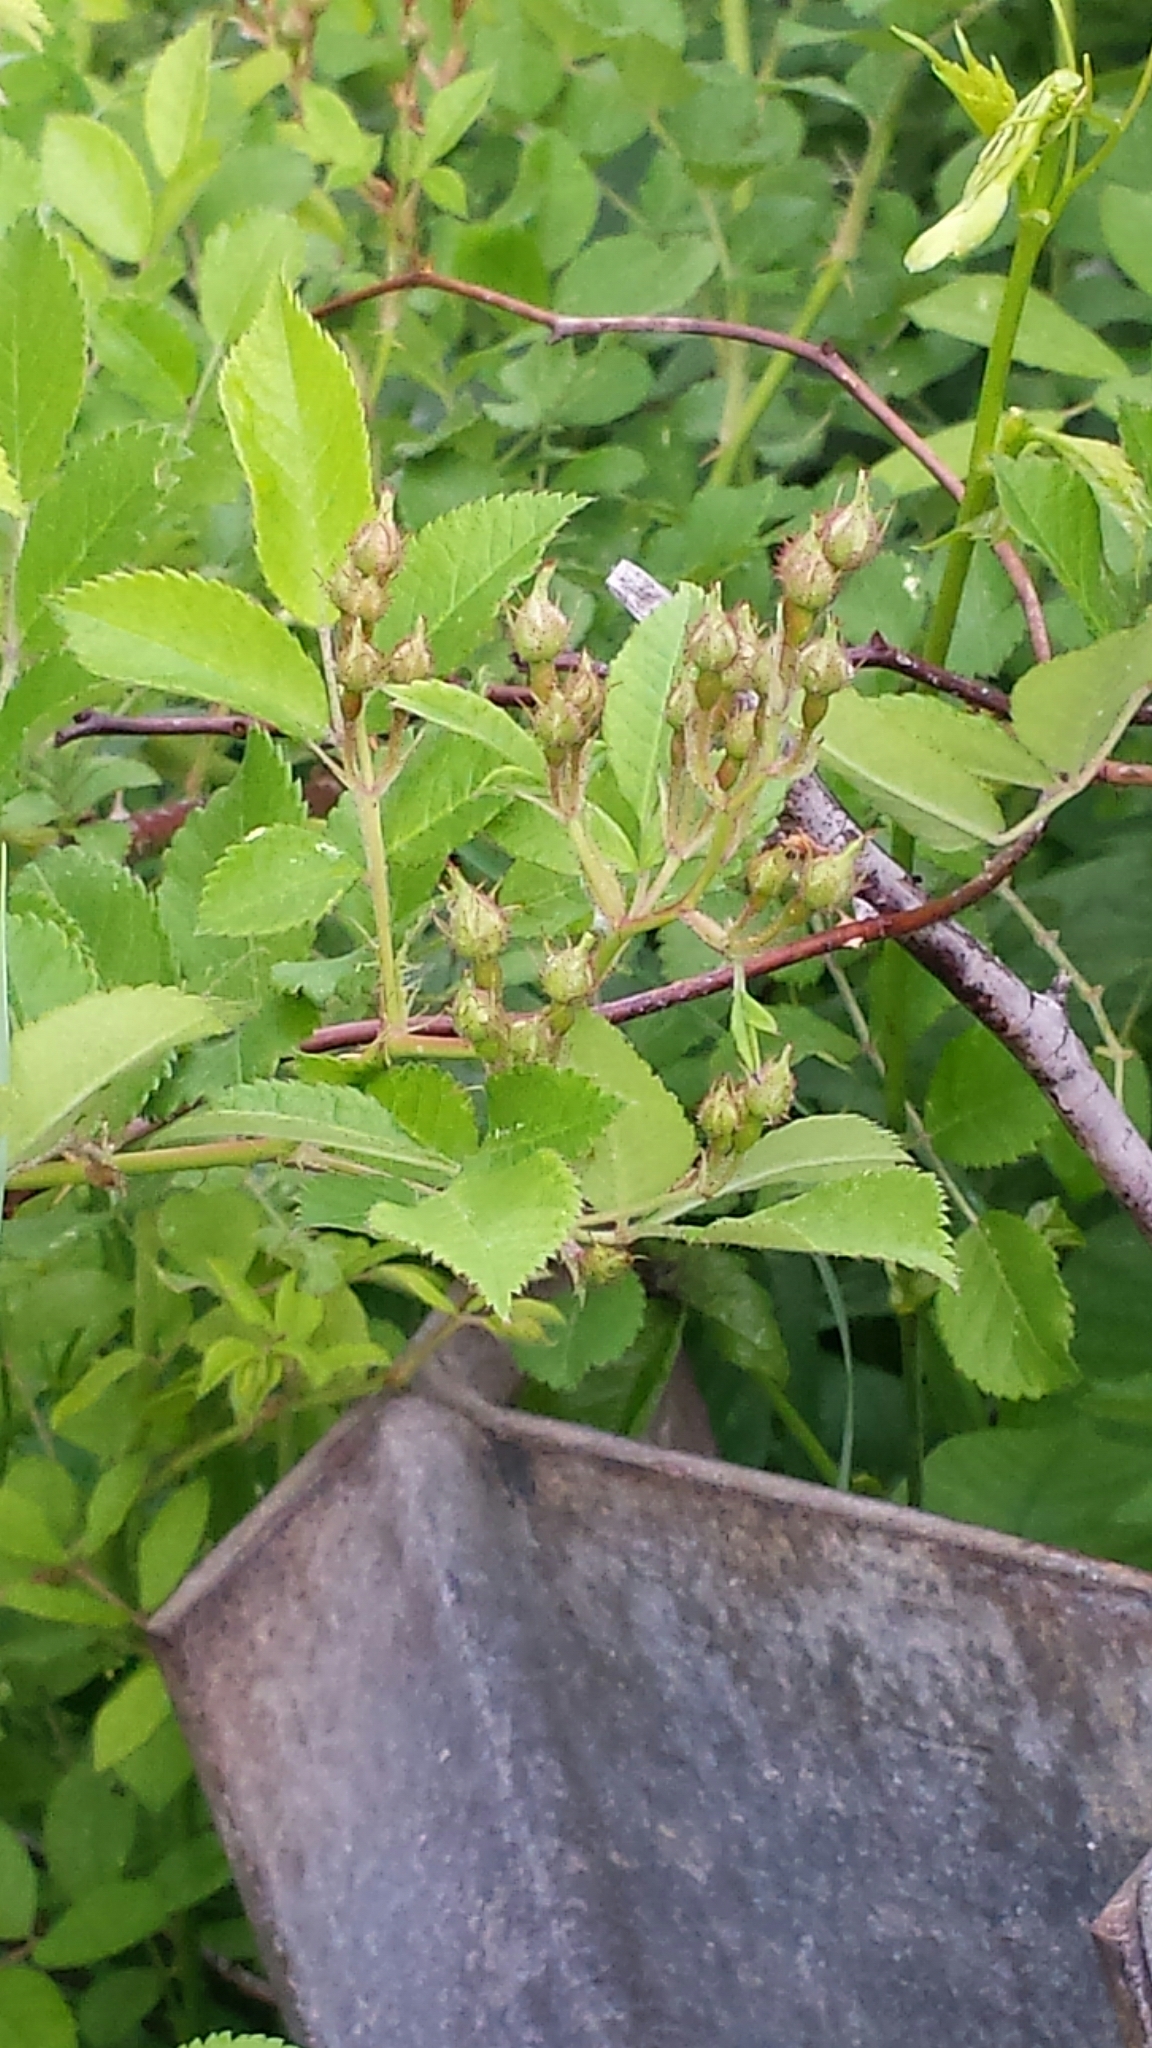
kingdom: Plantae
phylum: Tracheophyta
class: Magnoliopsida
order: Rosales
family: Rosaceae
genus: Rosa
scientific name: Rosa multiflora
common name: Multiflora rose
